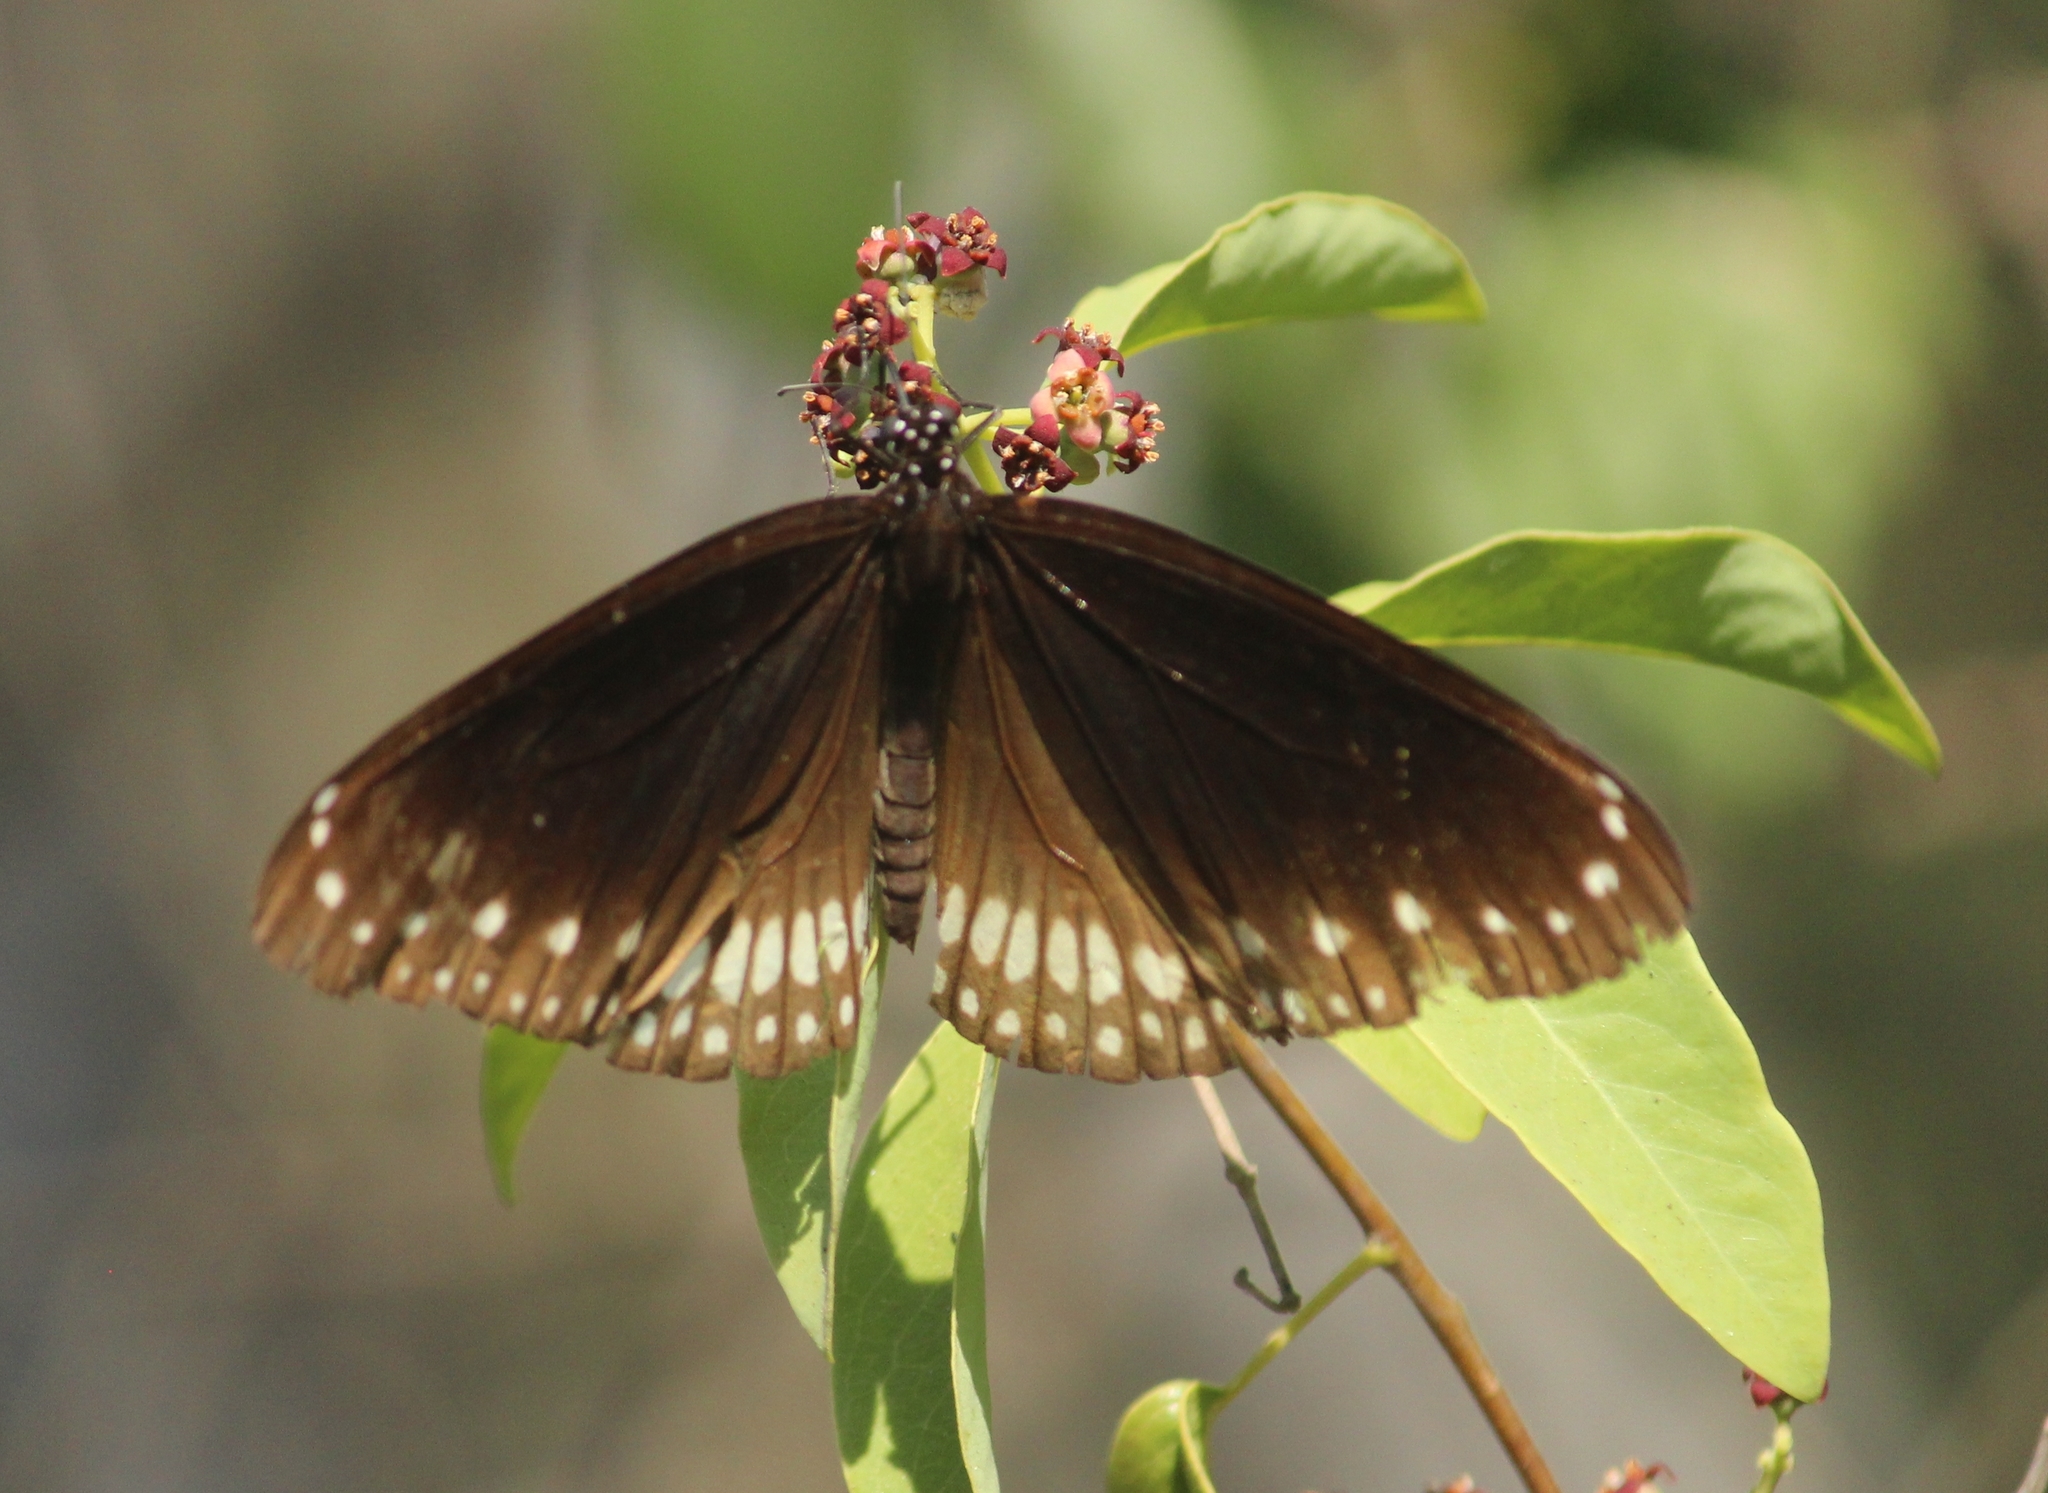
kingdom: Animalia
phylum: Arthropoda
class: Insecta
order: Lepidoptera
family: Nymphalidae
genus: Euploea
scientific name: Euploea core
